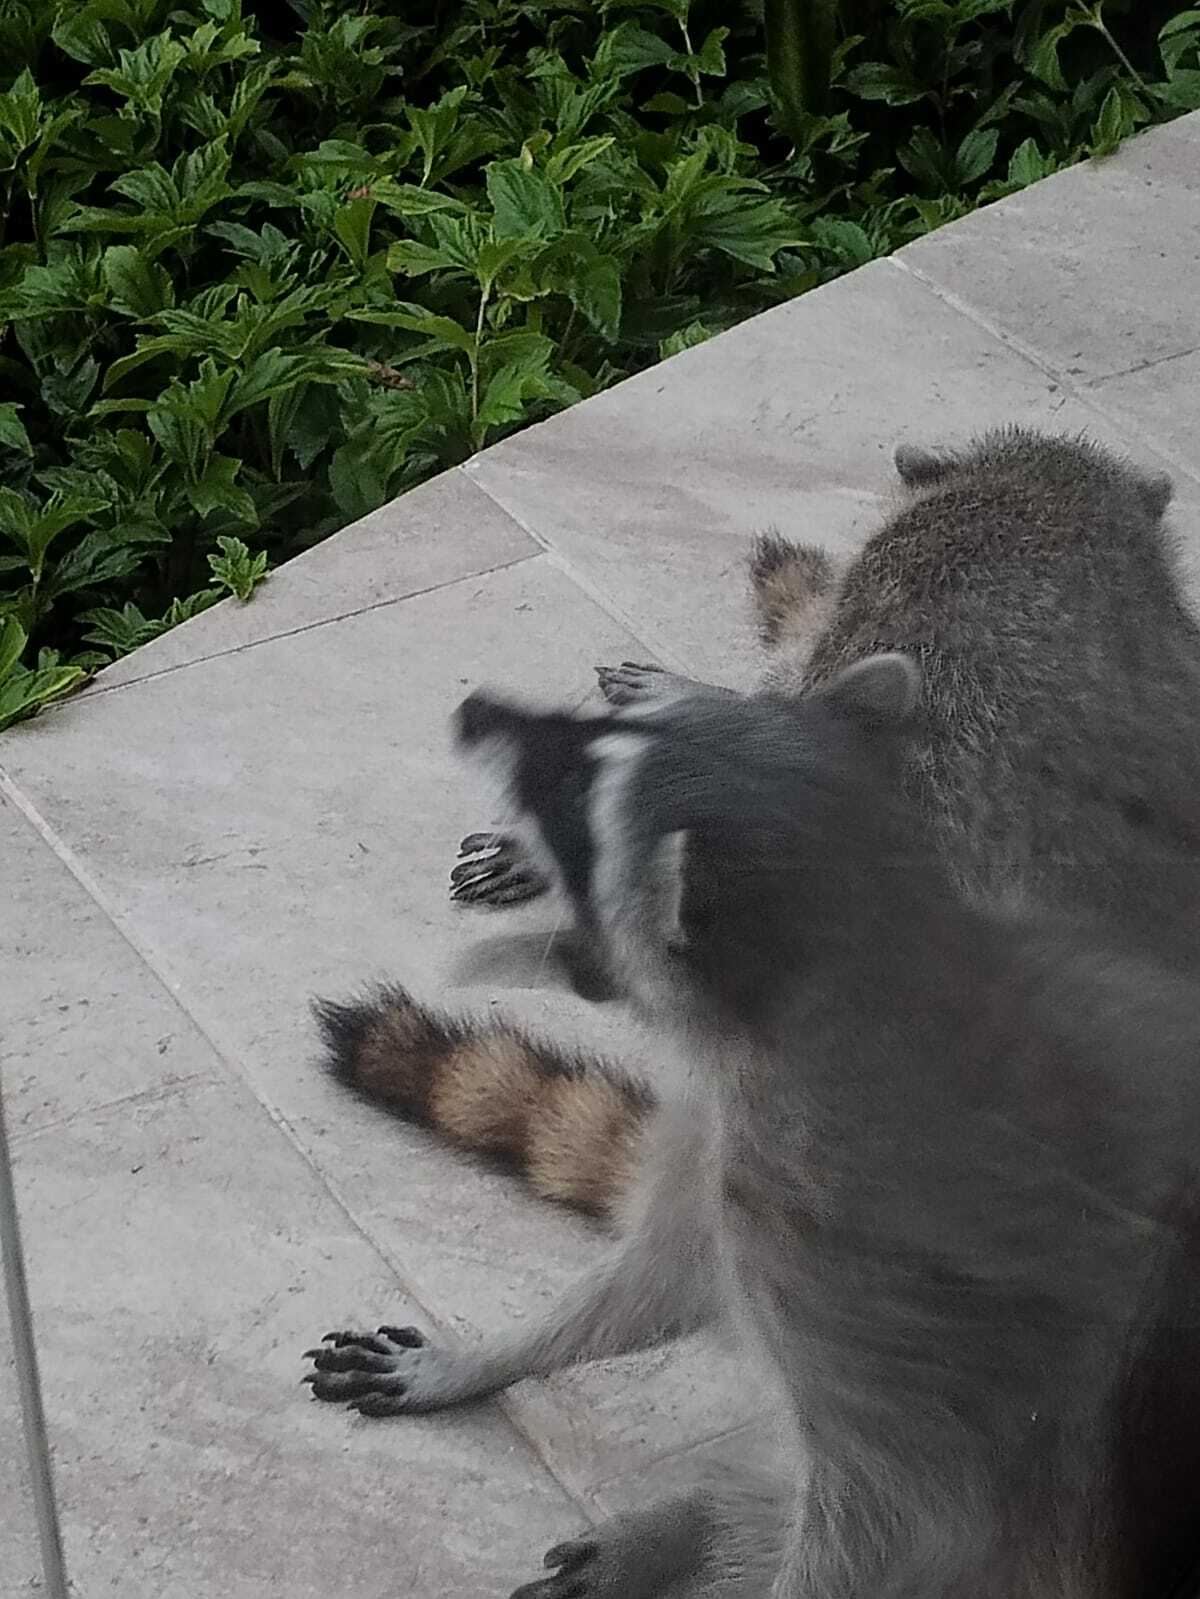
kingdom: Animalia
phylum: Chordata
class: Mammalia
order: Carnivora
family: Procyonidae
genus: Procyon
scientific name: Procyon lotor
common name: Raccoon
